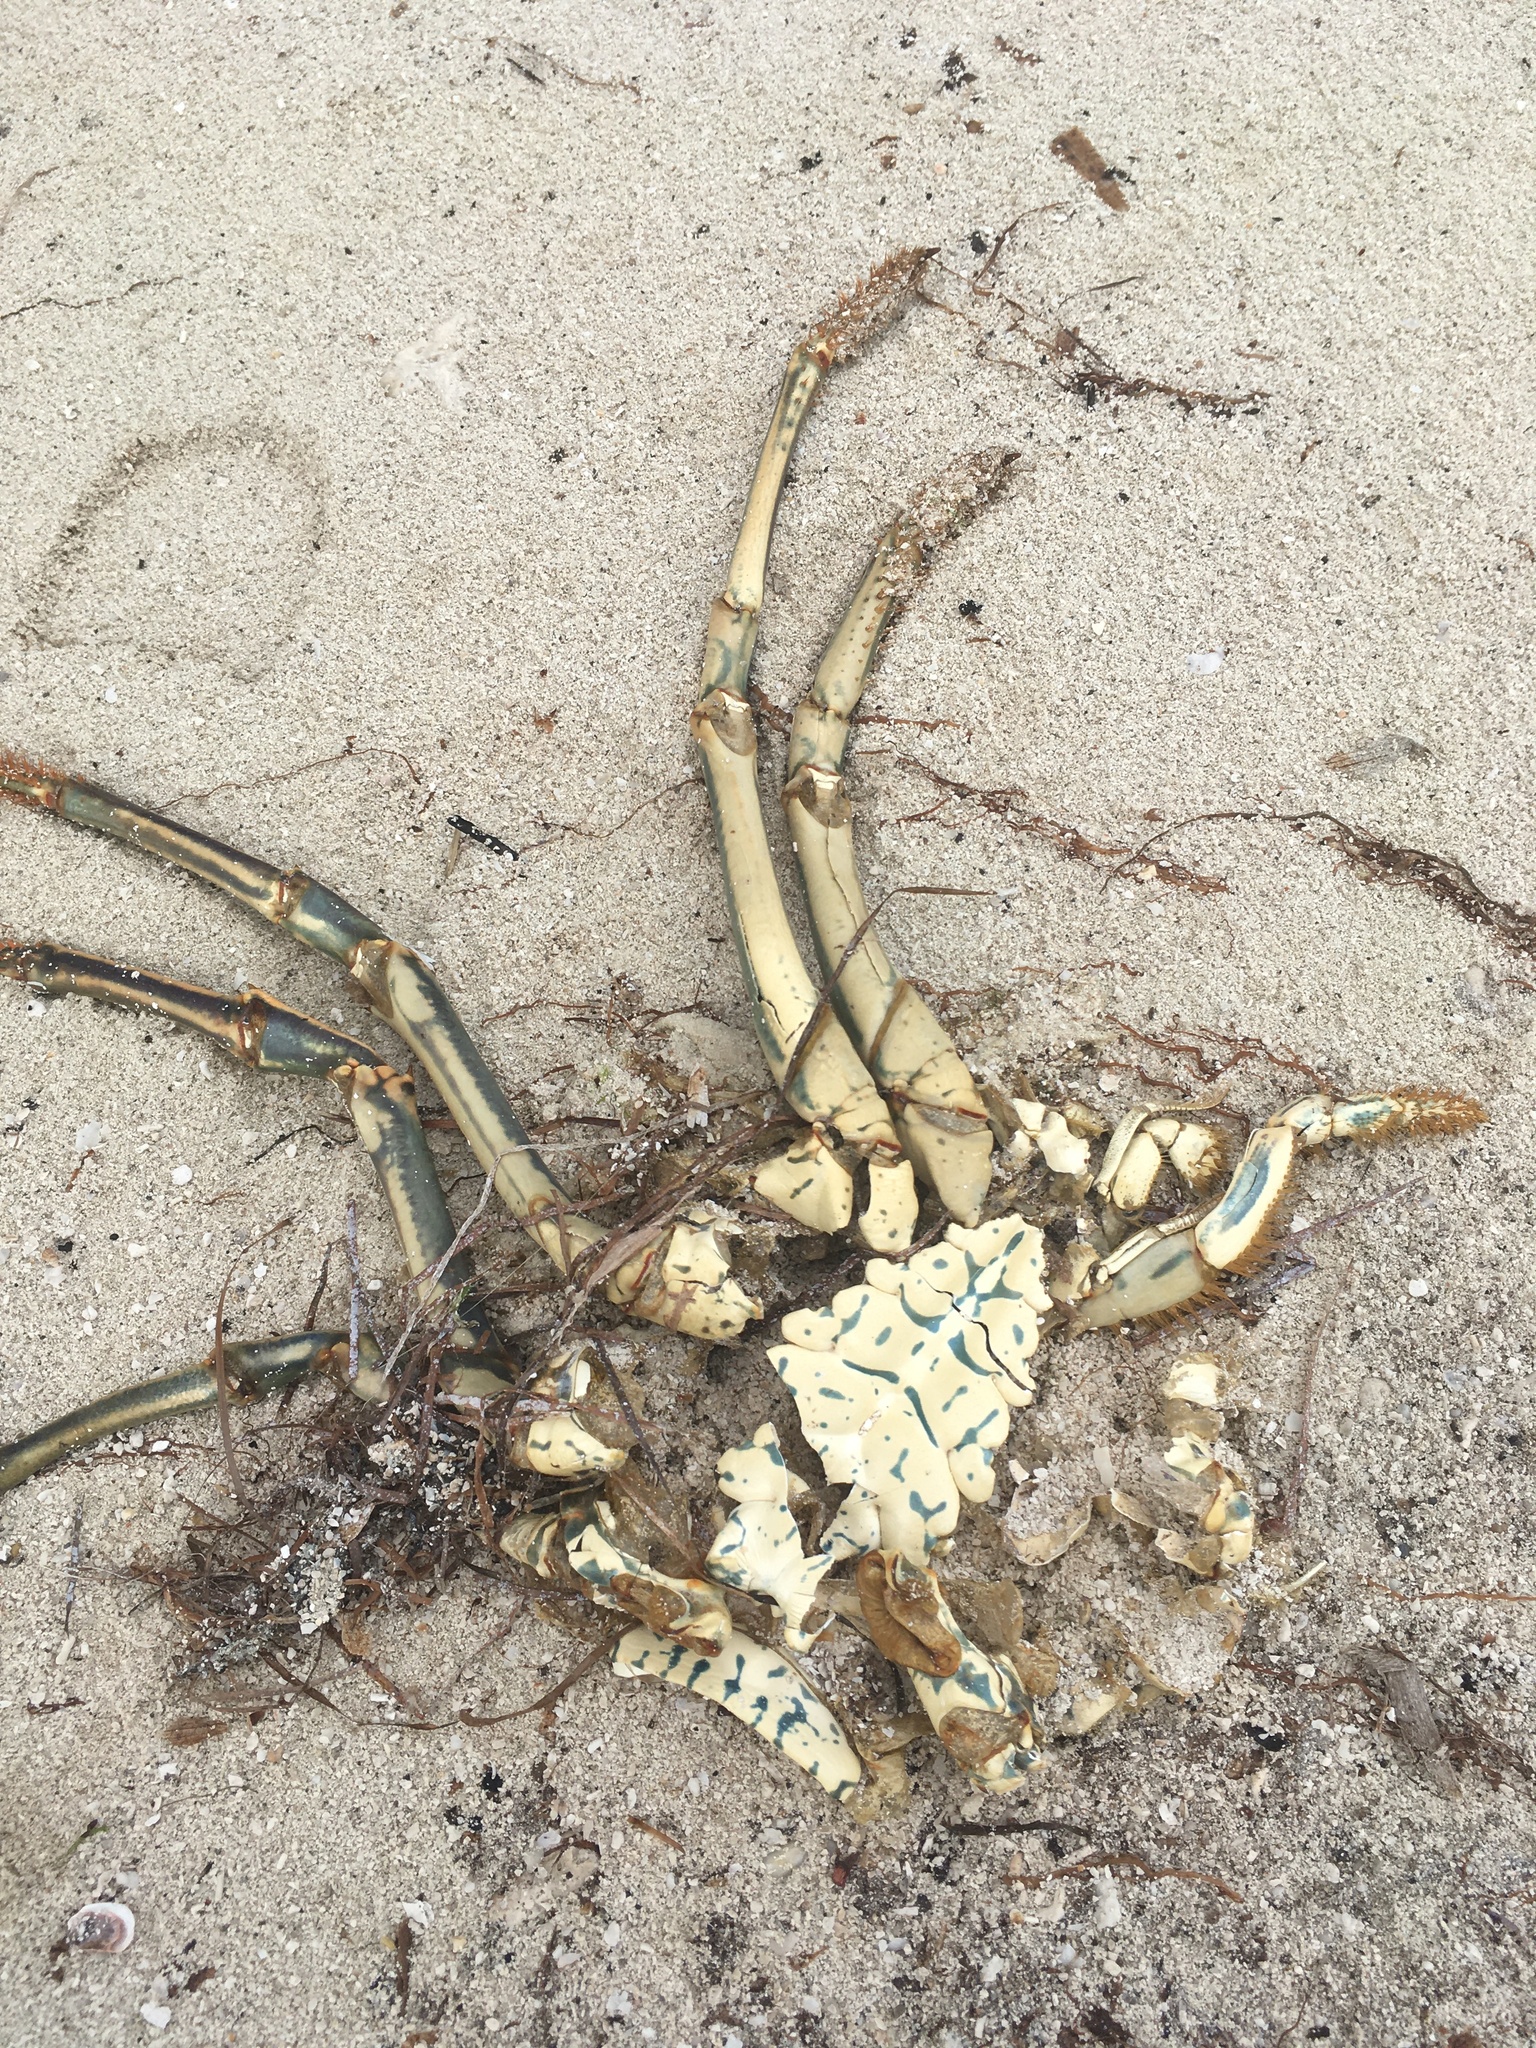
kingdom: Animalia
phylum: Arthropoda
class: Malacostraca
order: Decapoda
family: Palinuridae
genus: Panulirus
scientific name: Panulirus argus
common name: Caribbean spiny lobster
